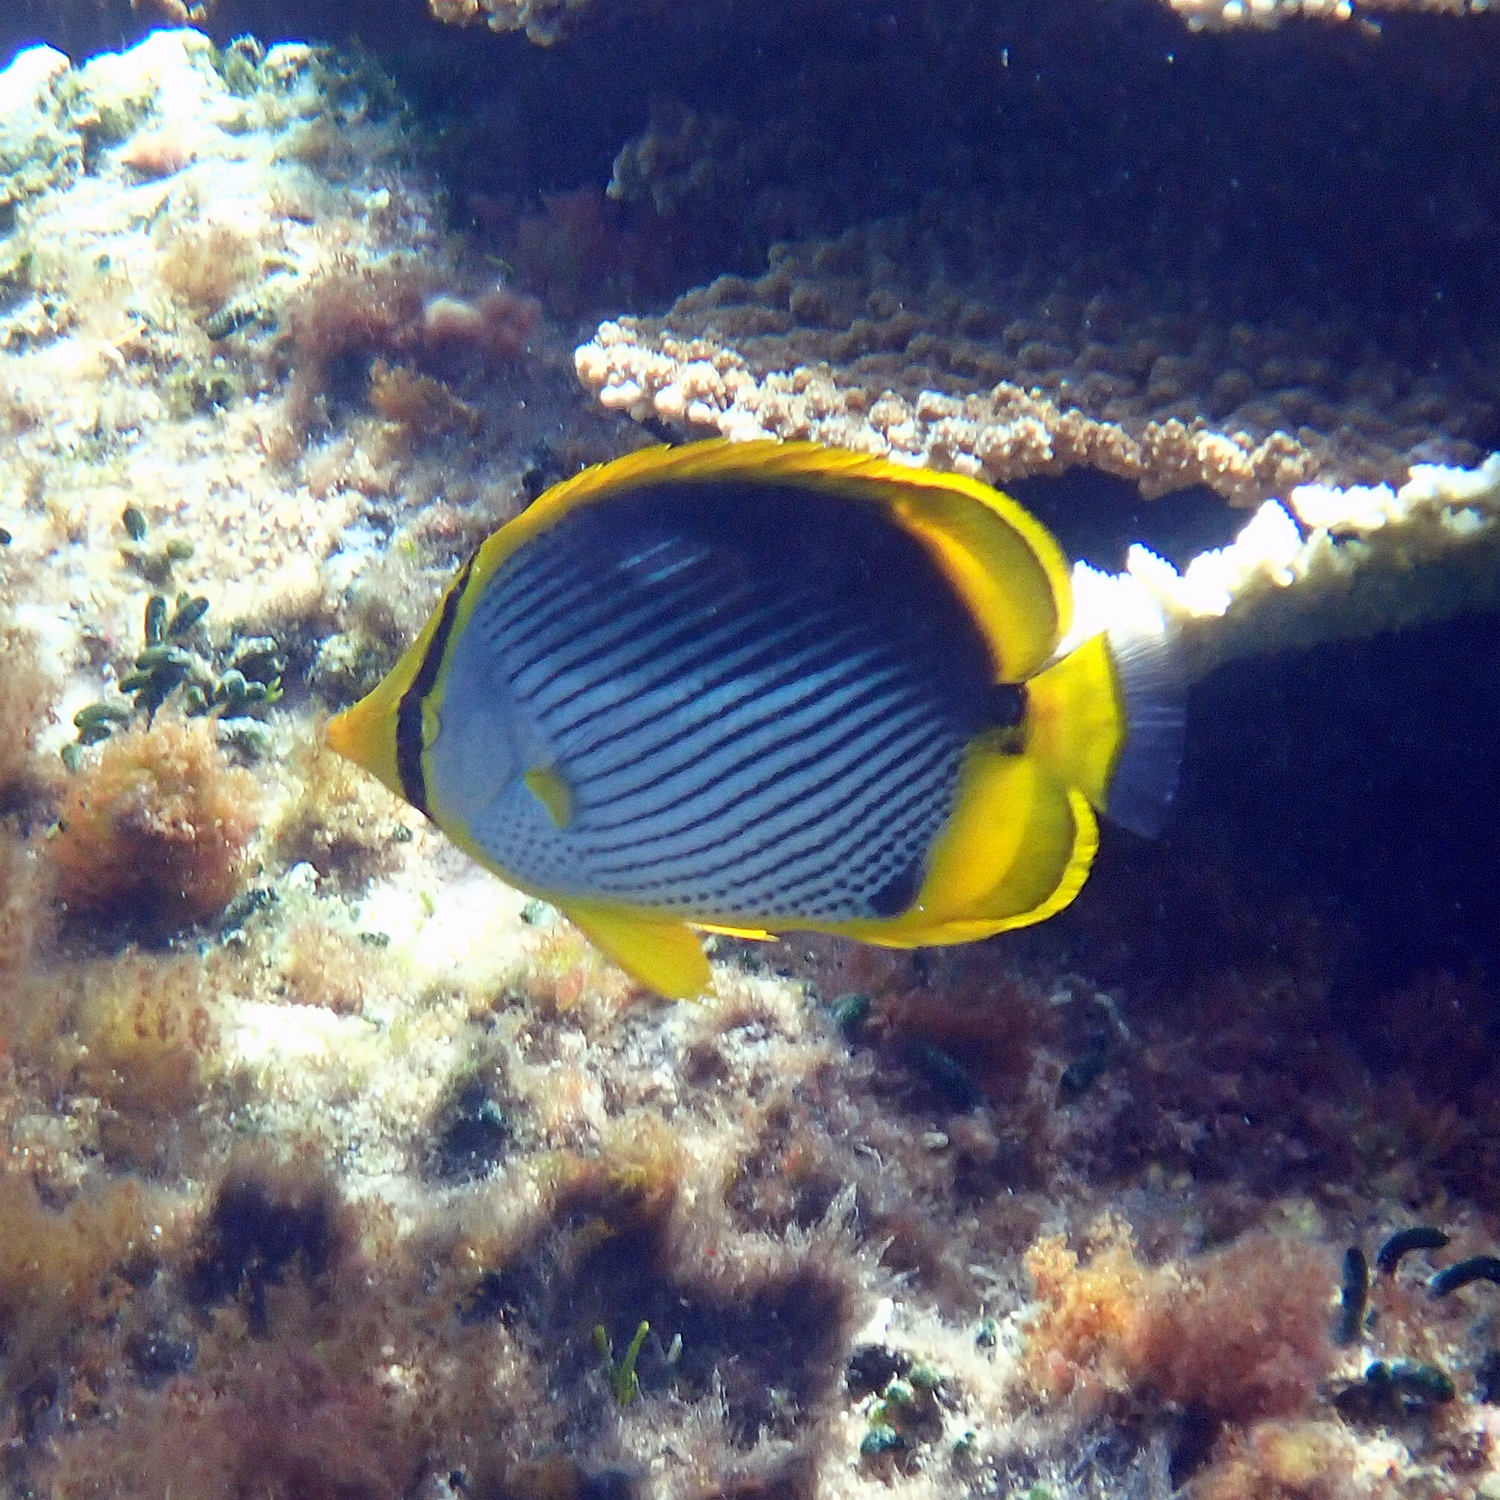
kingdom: Animalia
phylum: Chordata
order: Perciformes
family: Chaetodontidae
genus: Chaetodon
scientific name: Chaetodon melannotus
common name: Blackback butterflyfish
